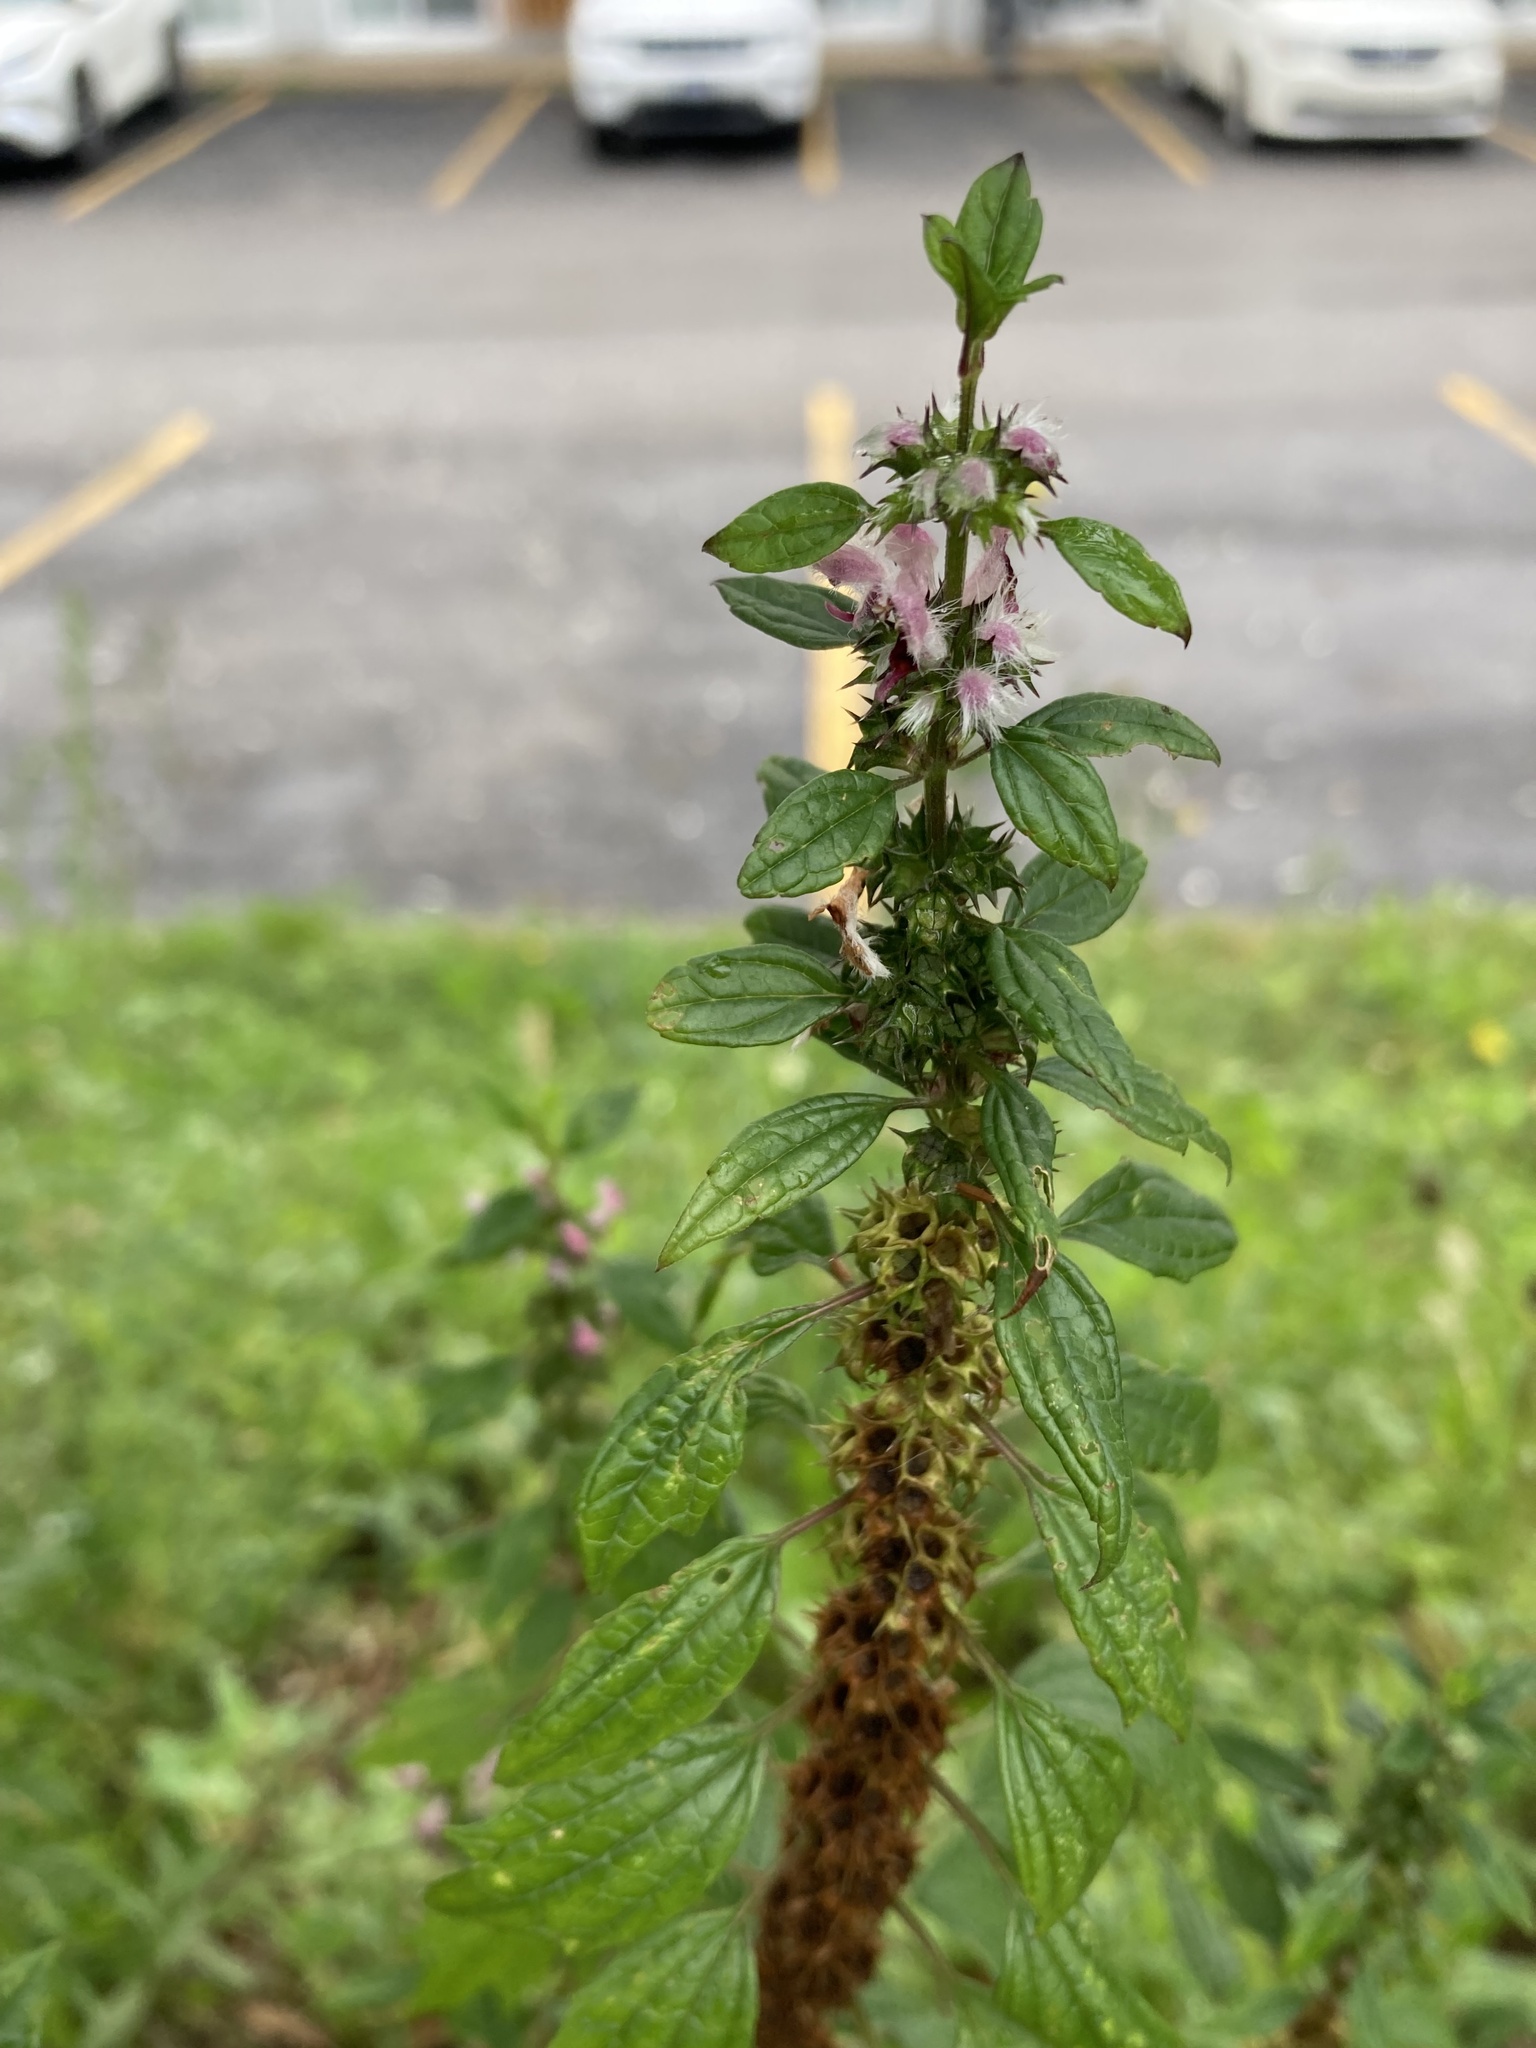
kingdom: Plantae
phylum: Tracheophyta
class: Magnoliopsida
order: Lamiales
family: Lamiaceae
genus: Leonurus
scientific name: Leonurus cardiaca
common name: Motherwort
